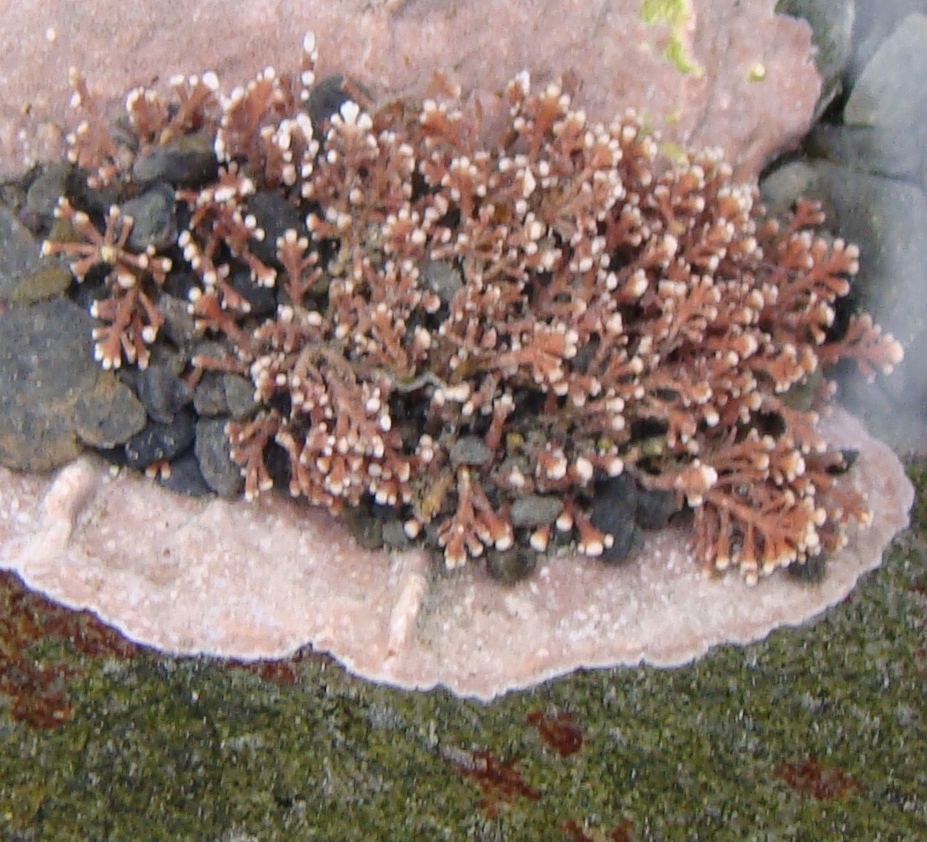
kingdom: Plantae
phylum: Rhodophyta
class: Florideophyceae
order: Corallinales
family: Corallinaceae
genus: Corallina
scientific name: Corallina officinalis
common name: Coral weed
